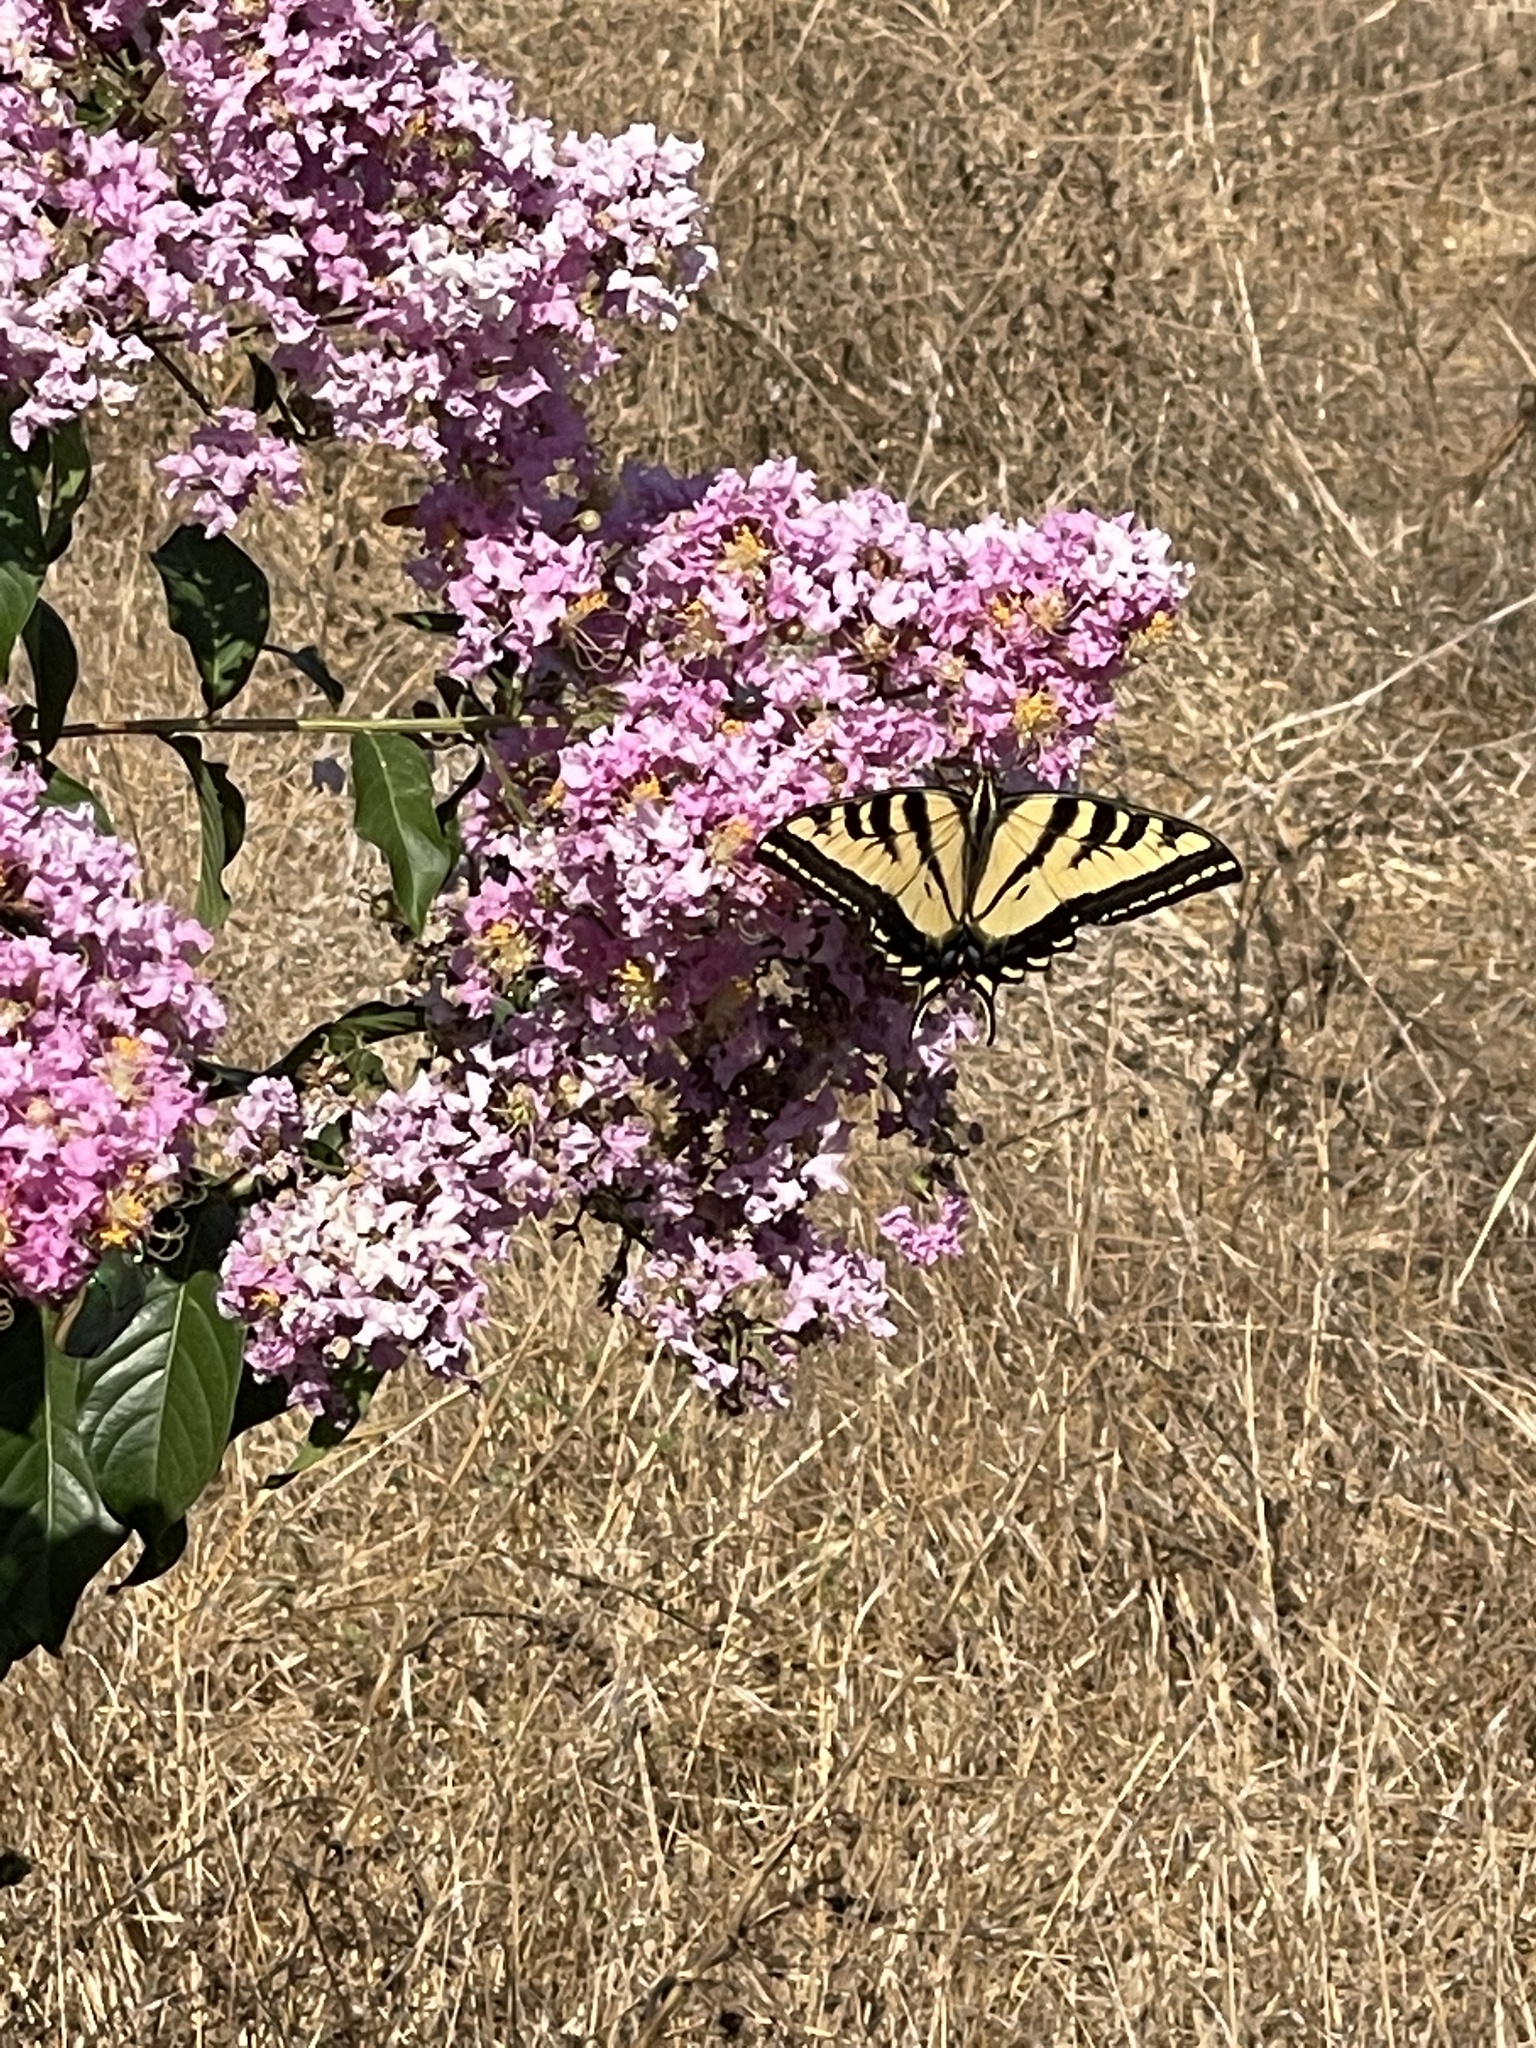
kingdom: Animalia
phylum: Arthropoda
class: Insecta
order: Lepidoptera
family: Papilionidae
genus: Papilio
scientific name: Papilio rutulus
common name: Western tiger swallowtail
